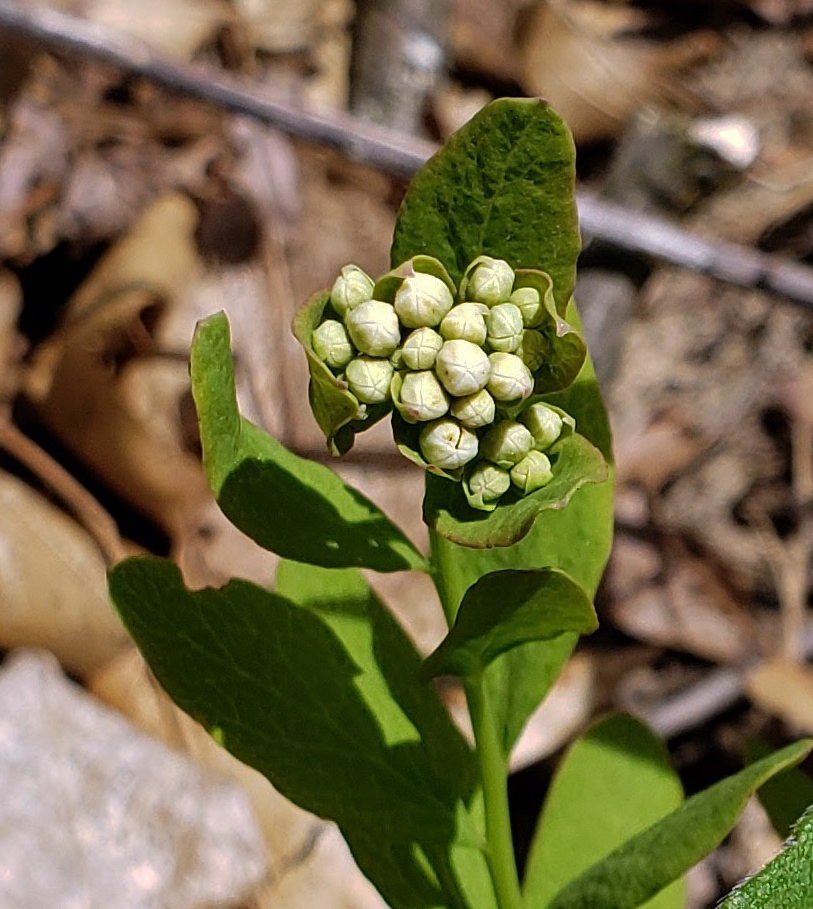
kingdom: Plantae
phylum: Tracheophyta
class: Magnoliopsida
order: Santalales
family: Comandraceae
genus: Comandra
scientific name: Comandra umbellata
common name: Bastard toadflax
